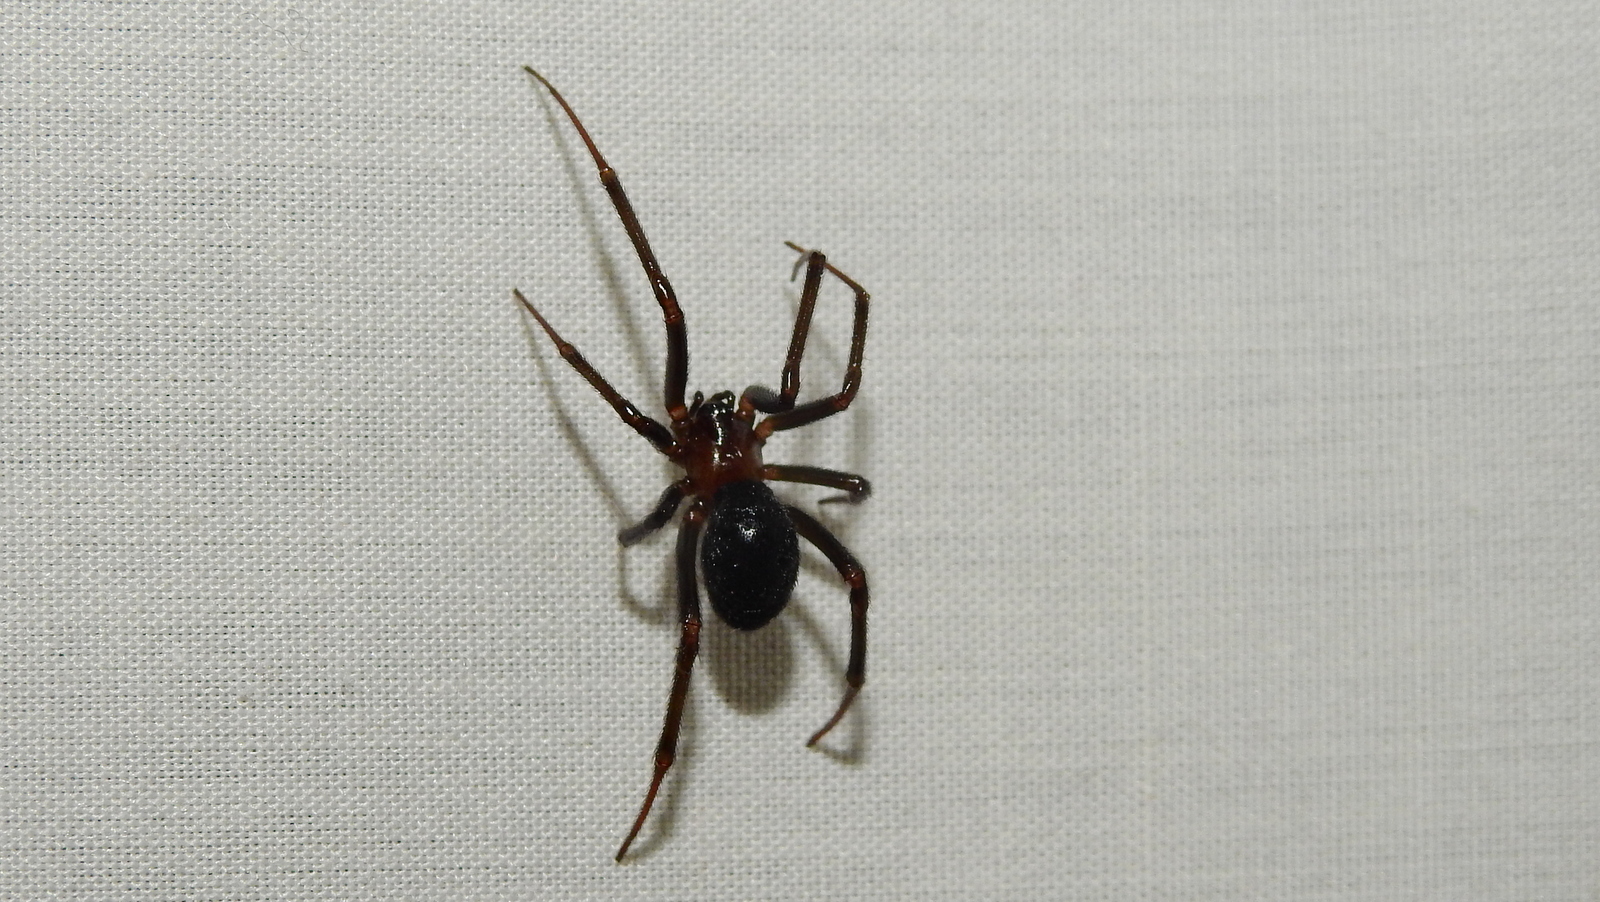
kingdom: Animalia
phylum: Arthropoda
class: Arachnida
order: Araneae
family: Theridiidae
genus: Steatoda
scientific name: Steatoda grossa
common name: False black widow
